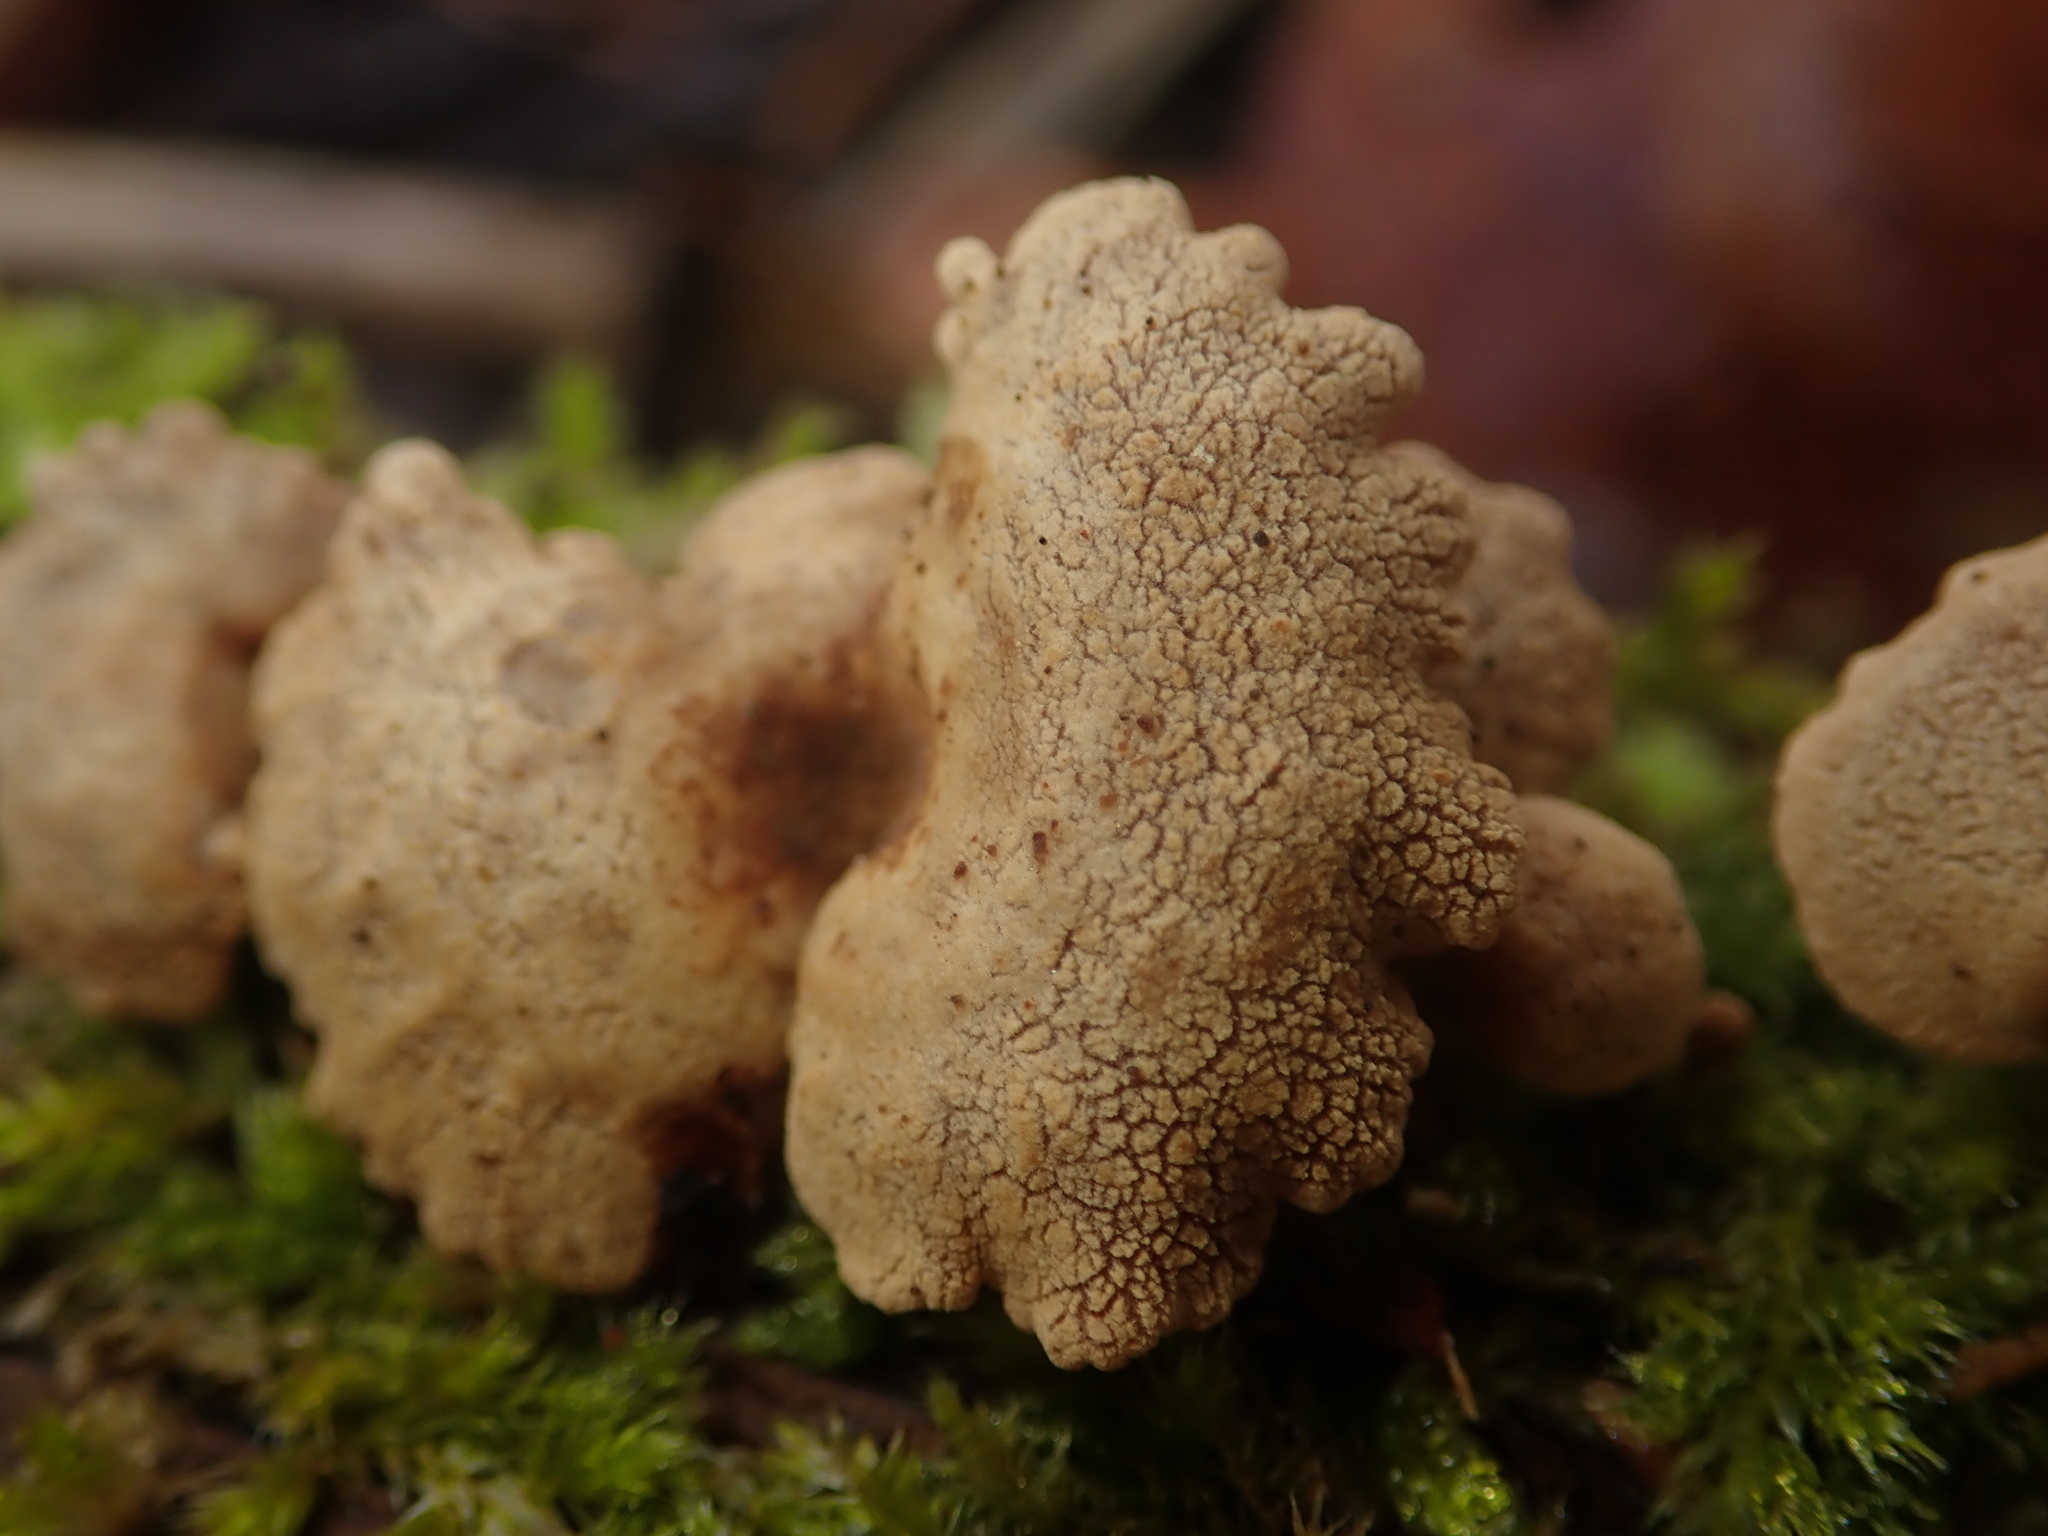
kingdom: Fungi
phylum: Basidiomycota
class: Agaricomycetes
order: Agaricales
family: Mycenaceae
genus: Panellus
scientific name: Panellus stipticus
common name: Bitter oysterling
